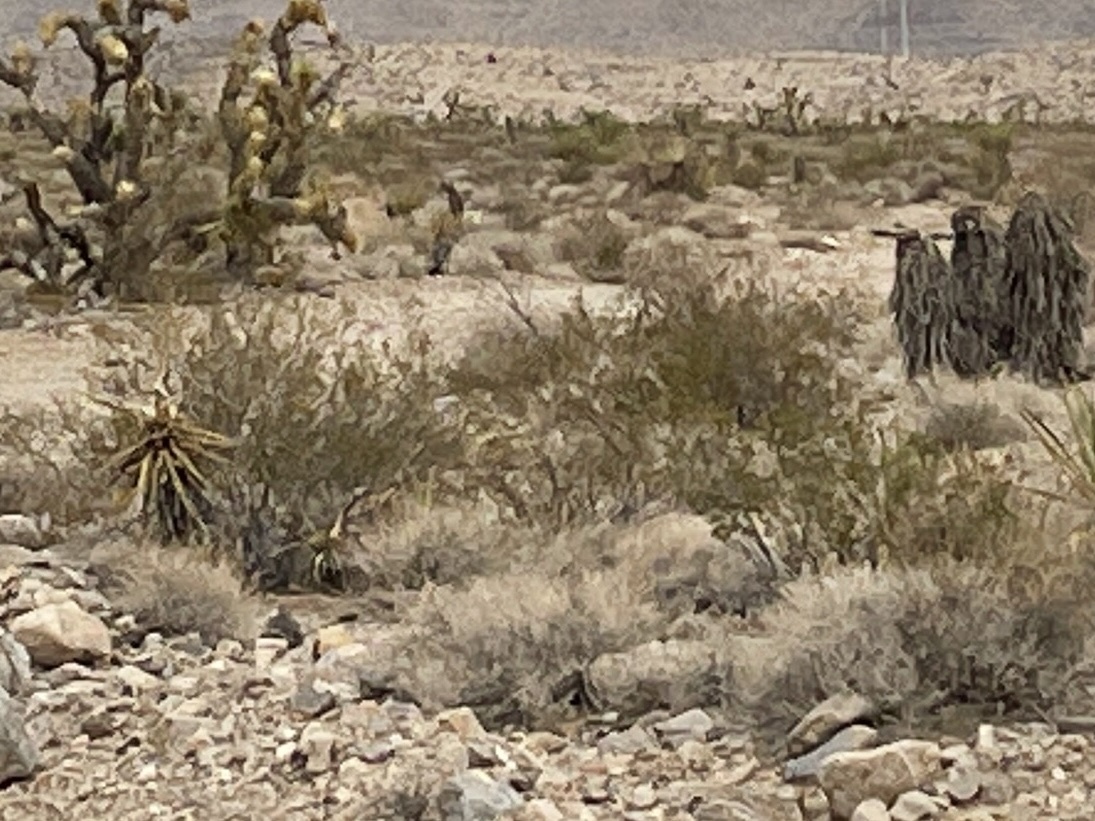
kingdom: Plantae
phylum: Tracheophyta
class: Magnoliopsida
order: Zygophyllales
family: Zygophyllaceae
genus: Larrea
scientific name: Larrea tridentata
